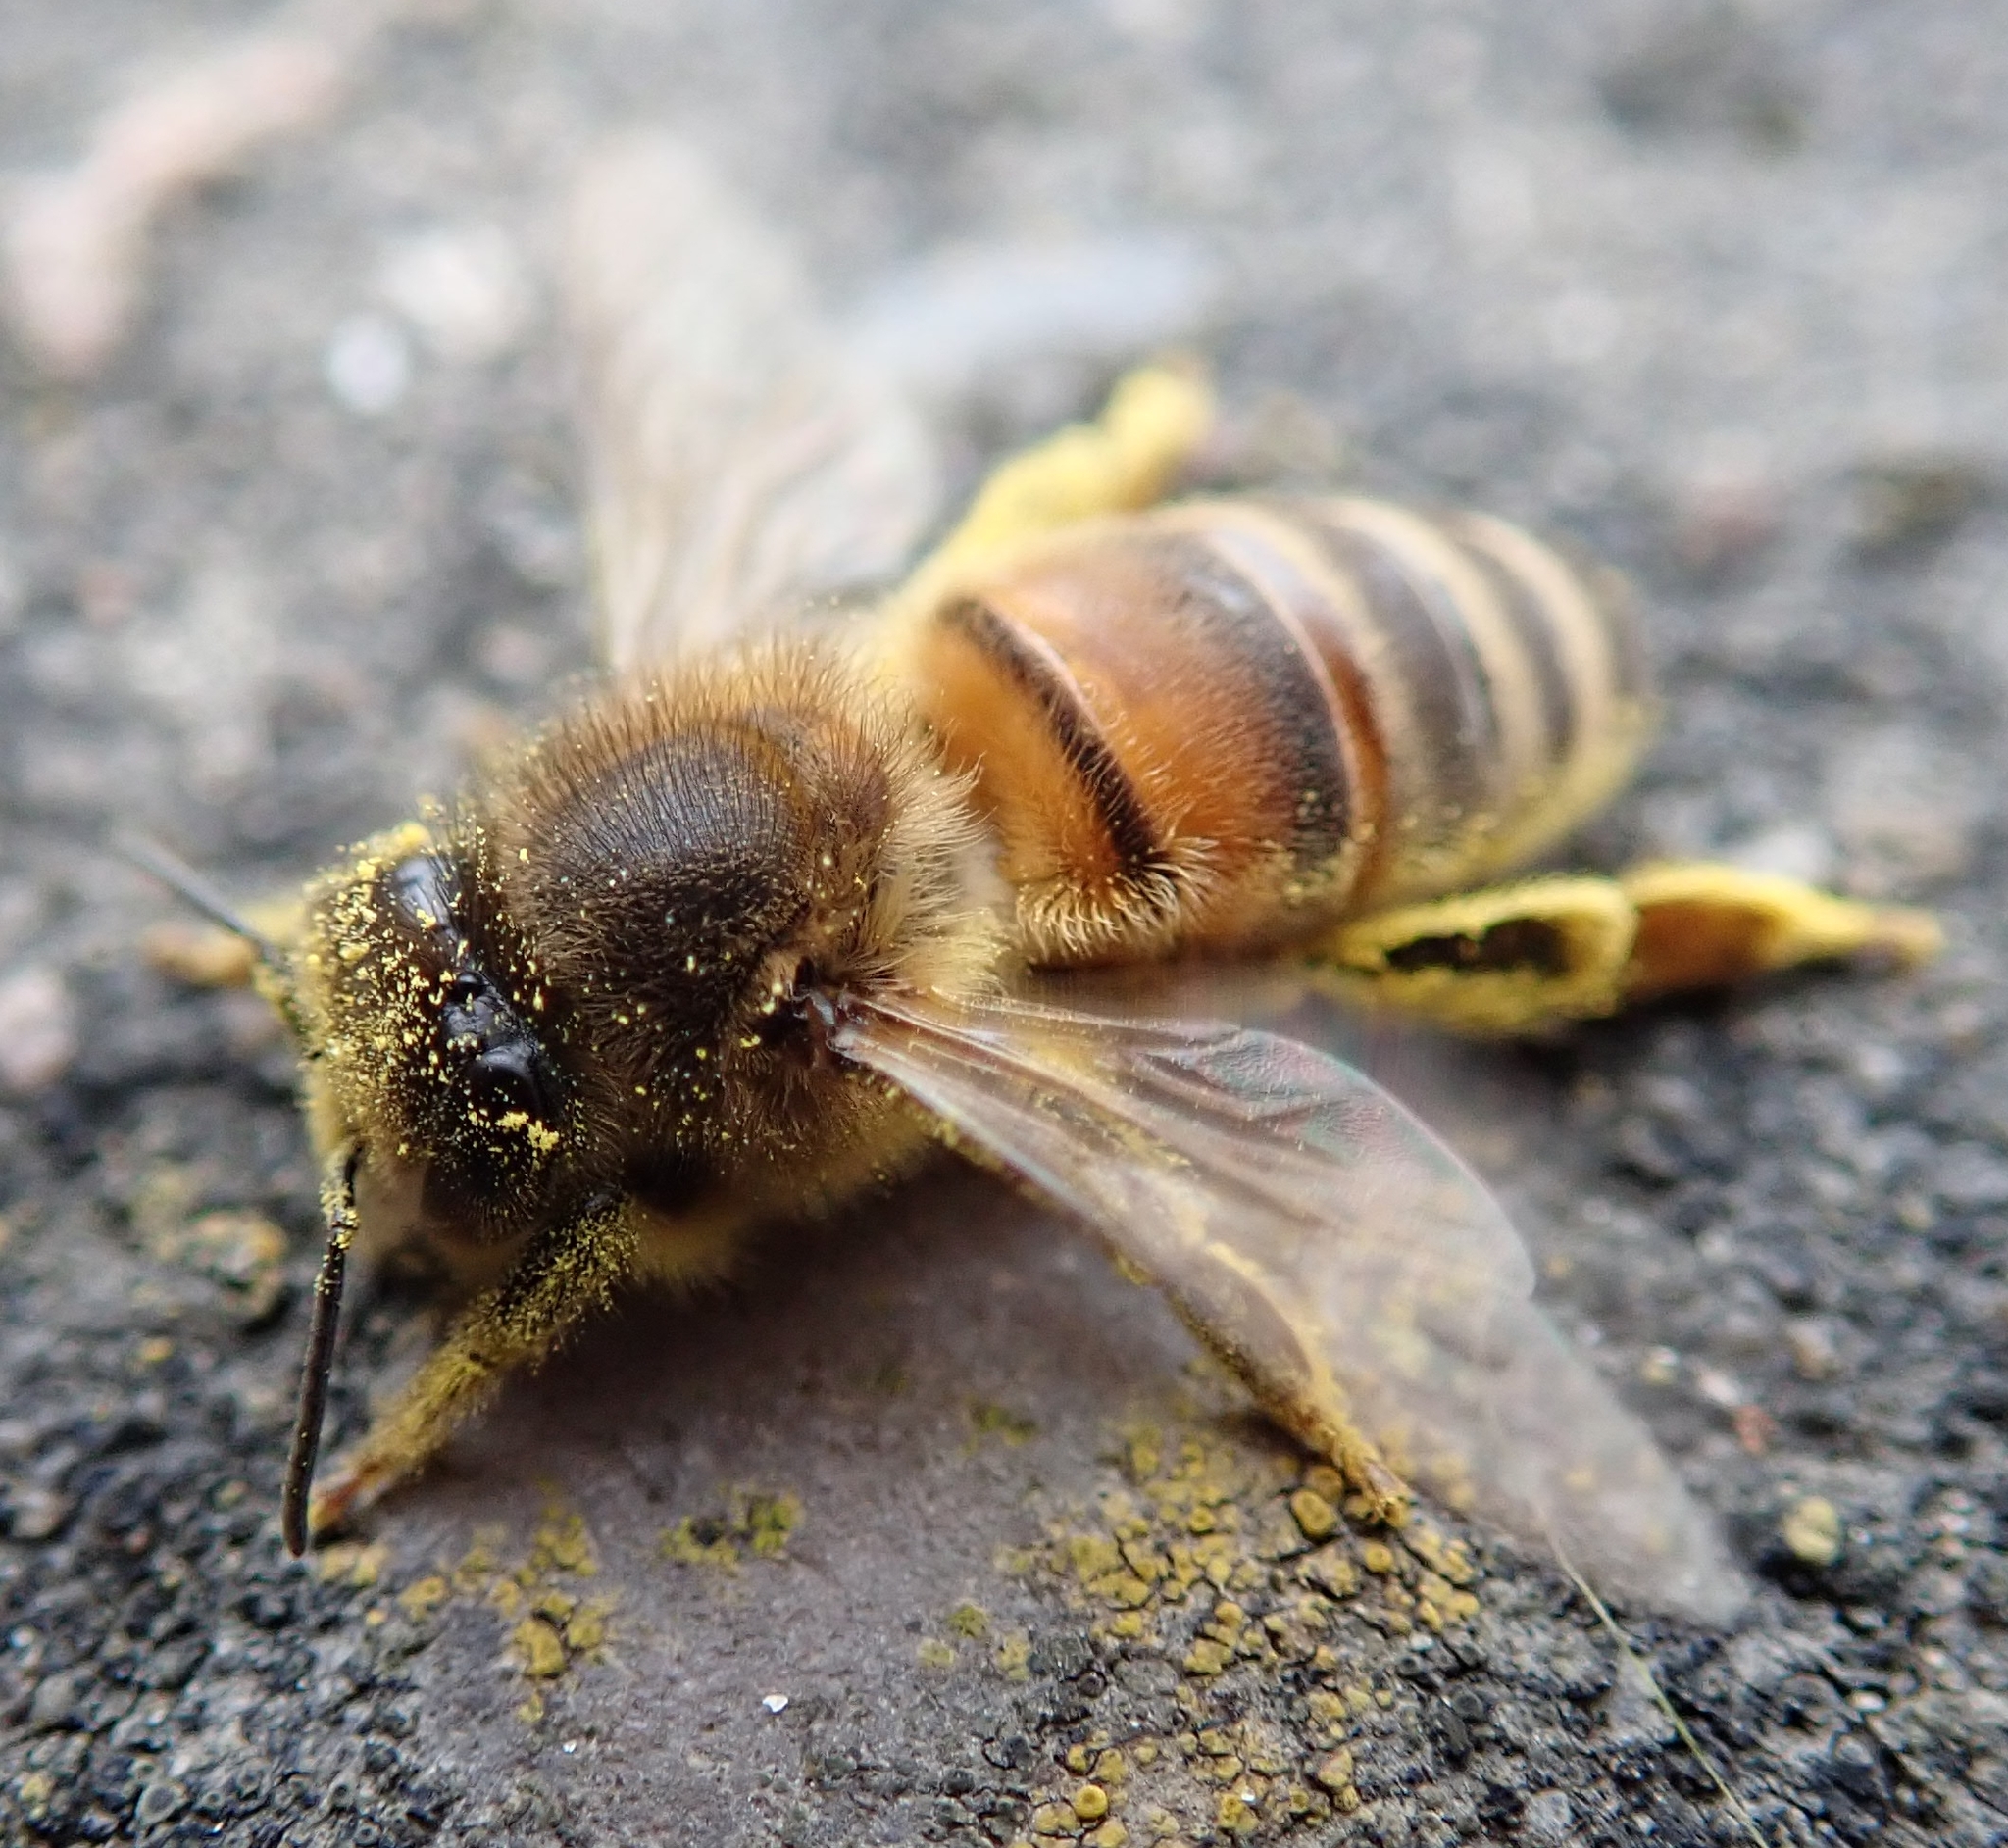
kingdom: Animalia
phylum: Arthropoda
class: Insecta
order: Hymenoptera
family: Apidae
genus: Apis
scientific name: Apis mellifera
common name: Honey bee
